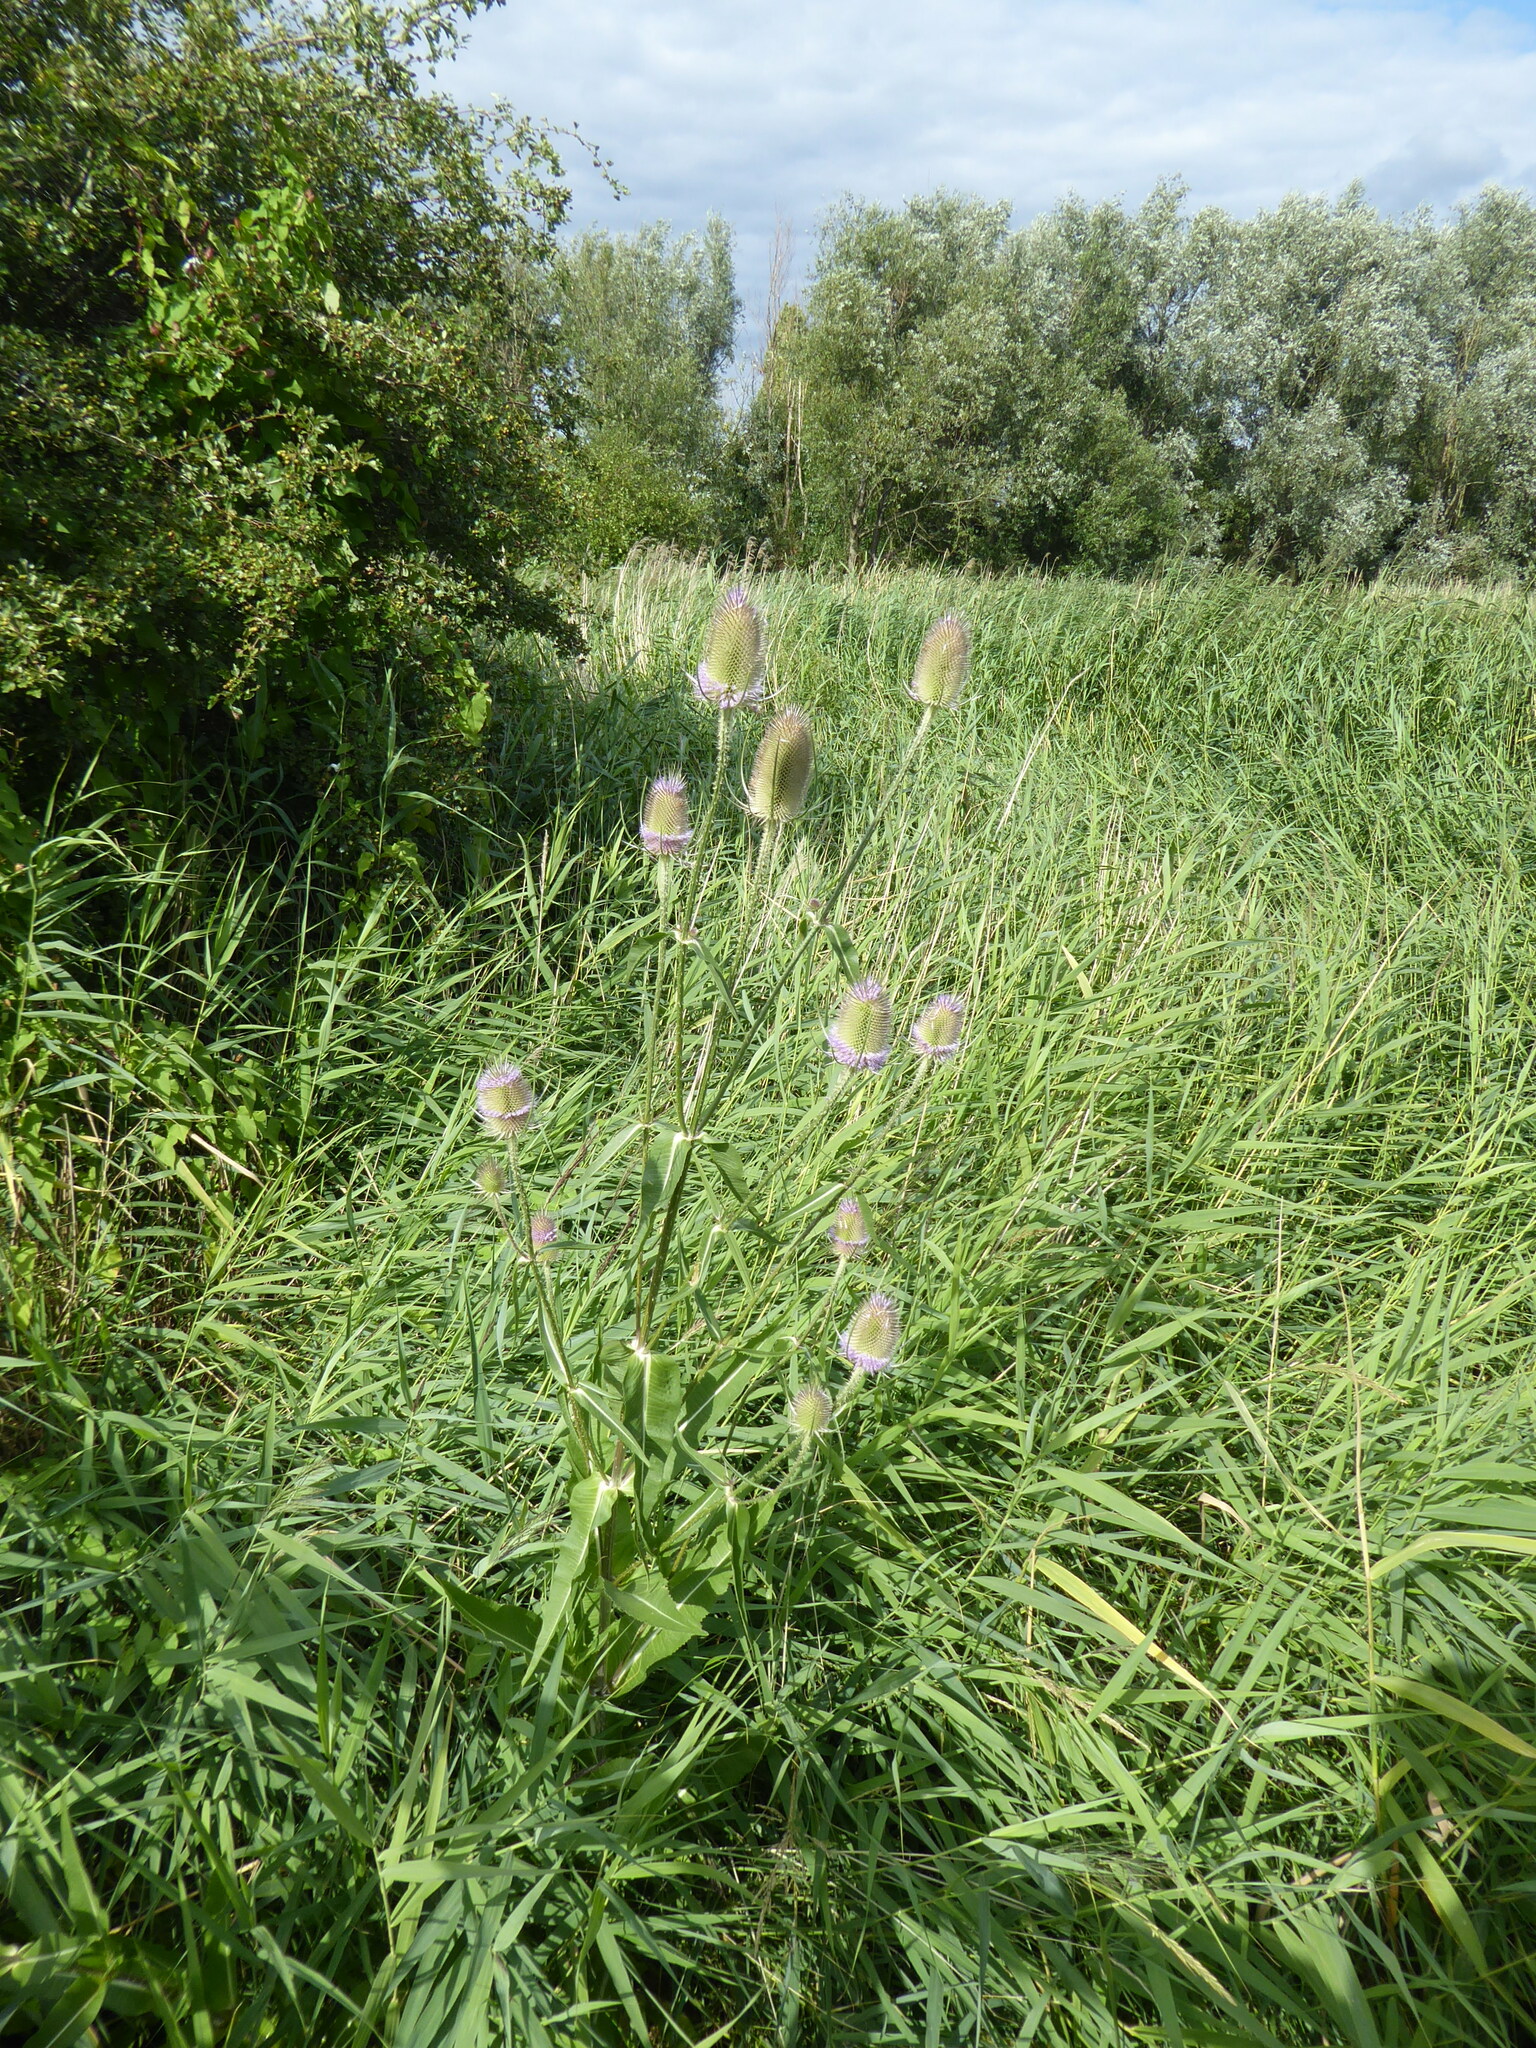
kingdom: Plantae
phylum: Tracheophyta
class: Magnoliopsida
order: Dipsacales
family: Caprifoliaceae
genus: Dipsacus
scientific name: Dipsacus fullonum
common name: Teasel
